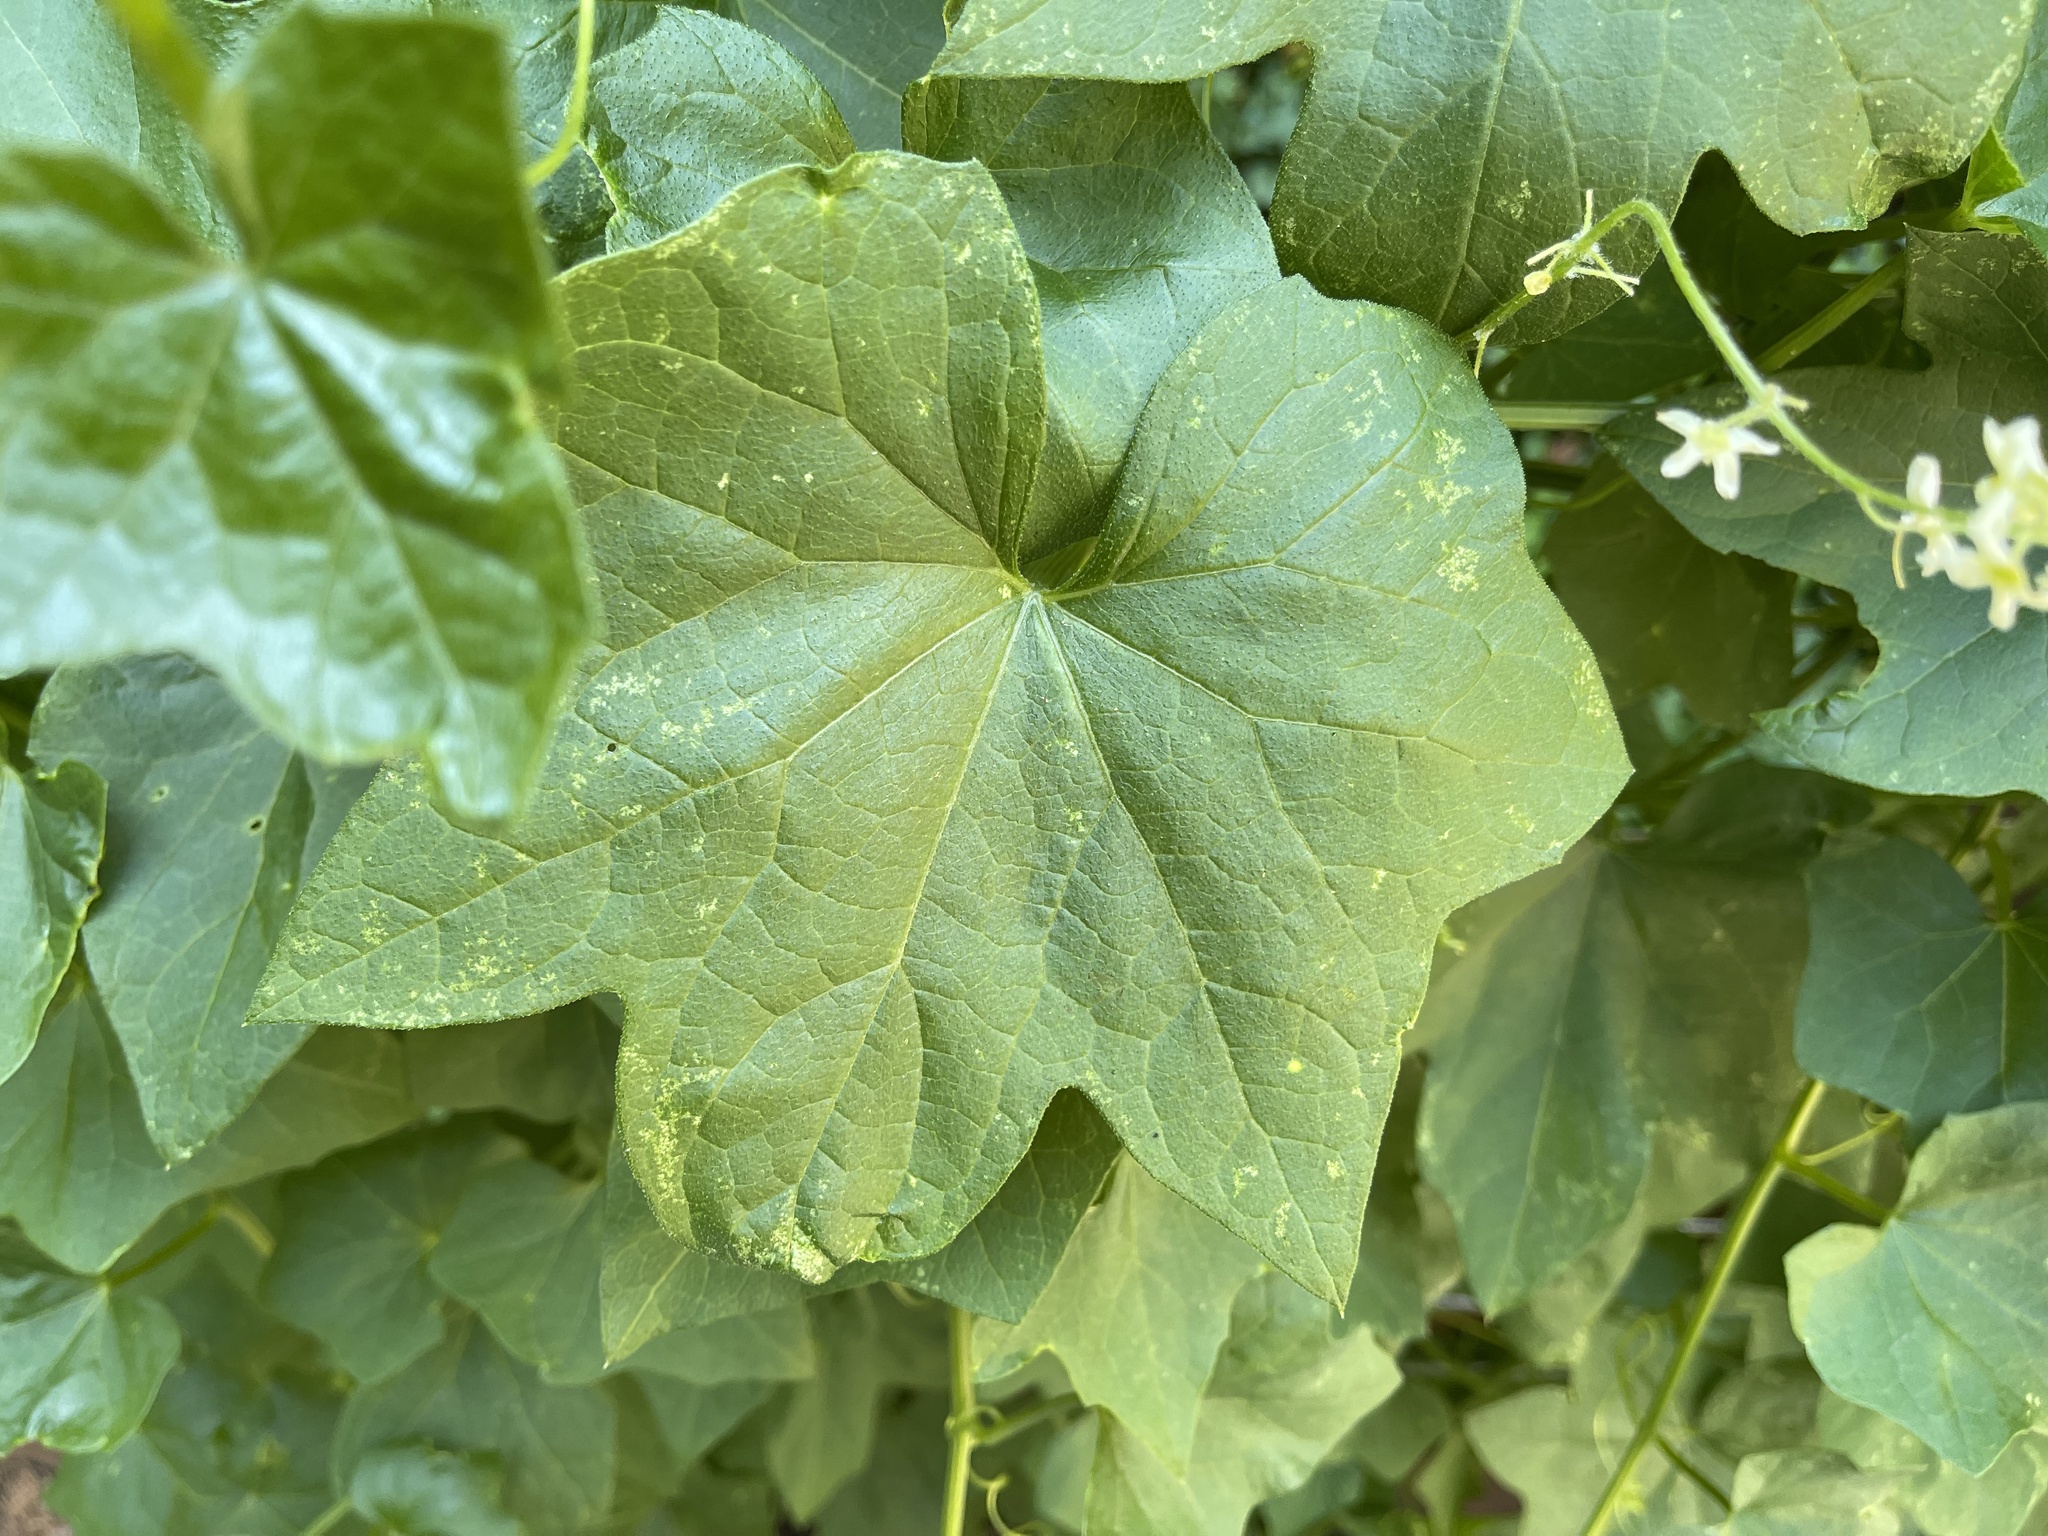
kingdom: Plantae
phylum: Tracheophyta
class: Magnoliopsida
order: Cucurbitales
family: Cucurbitaceae
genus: Marah
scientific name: Marah fabacea
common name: California manroot
